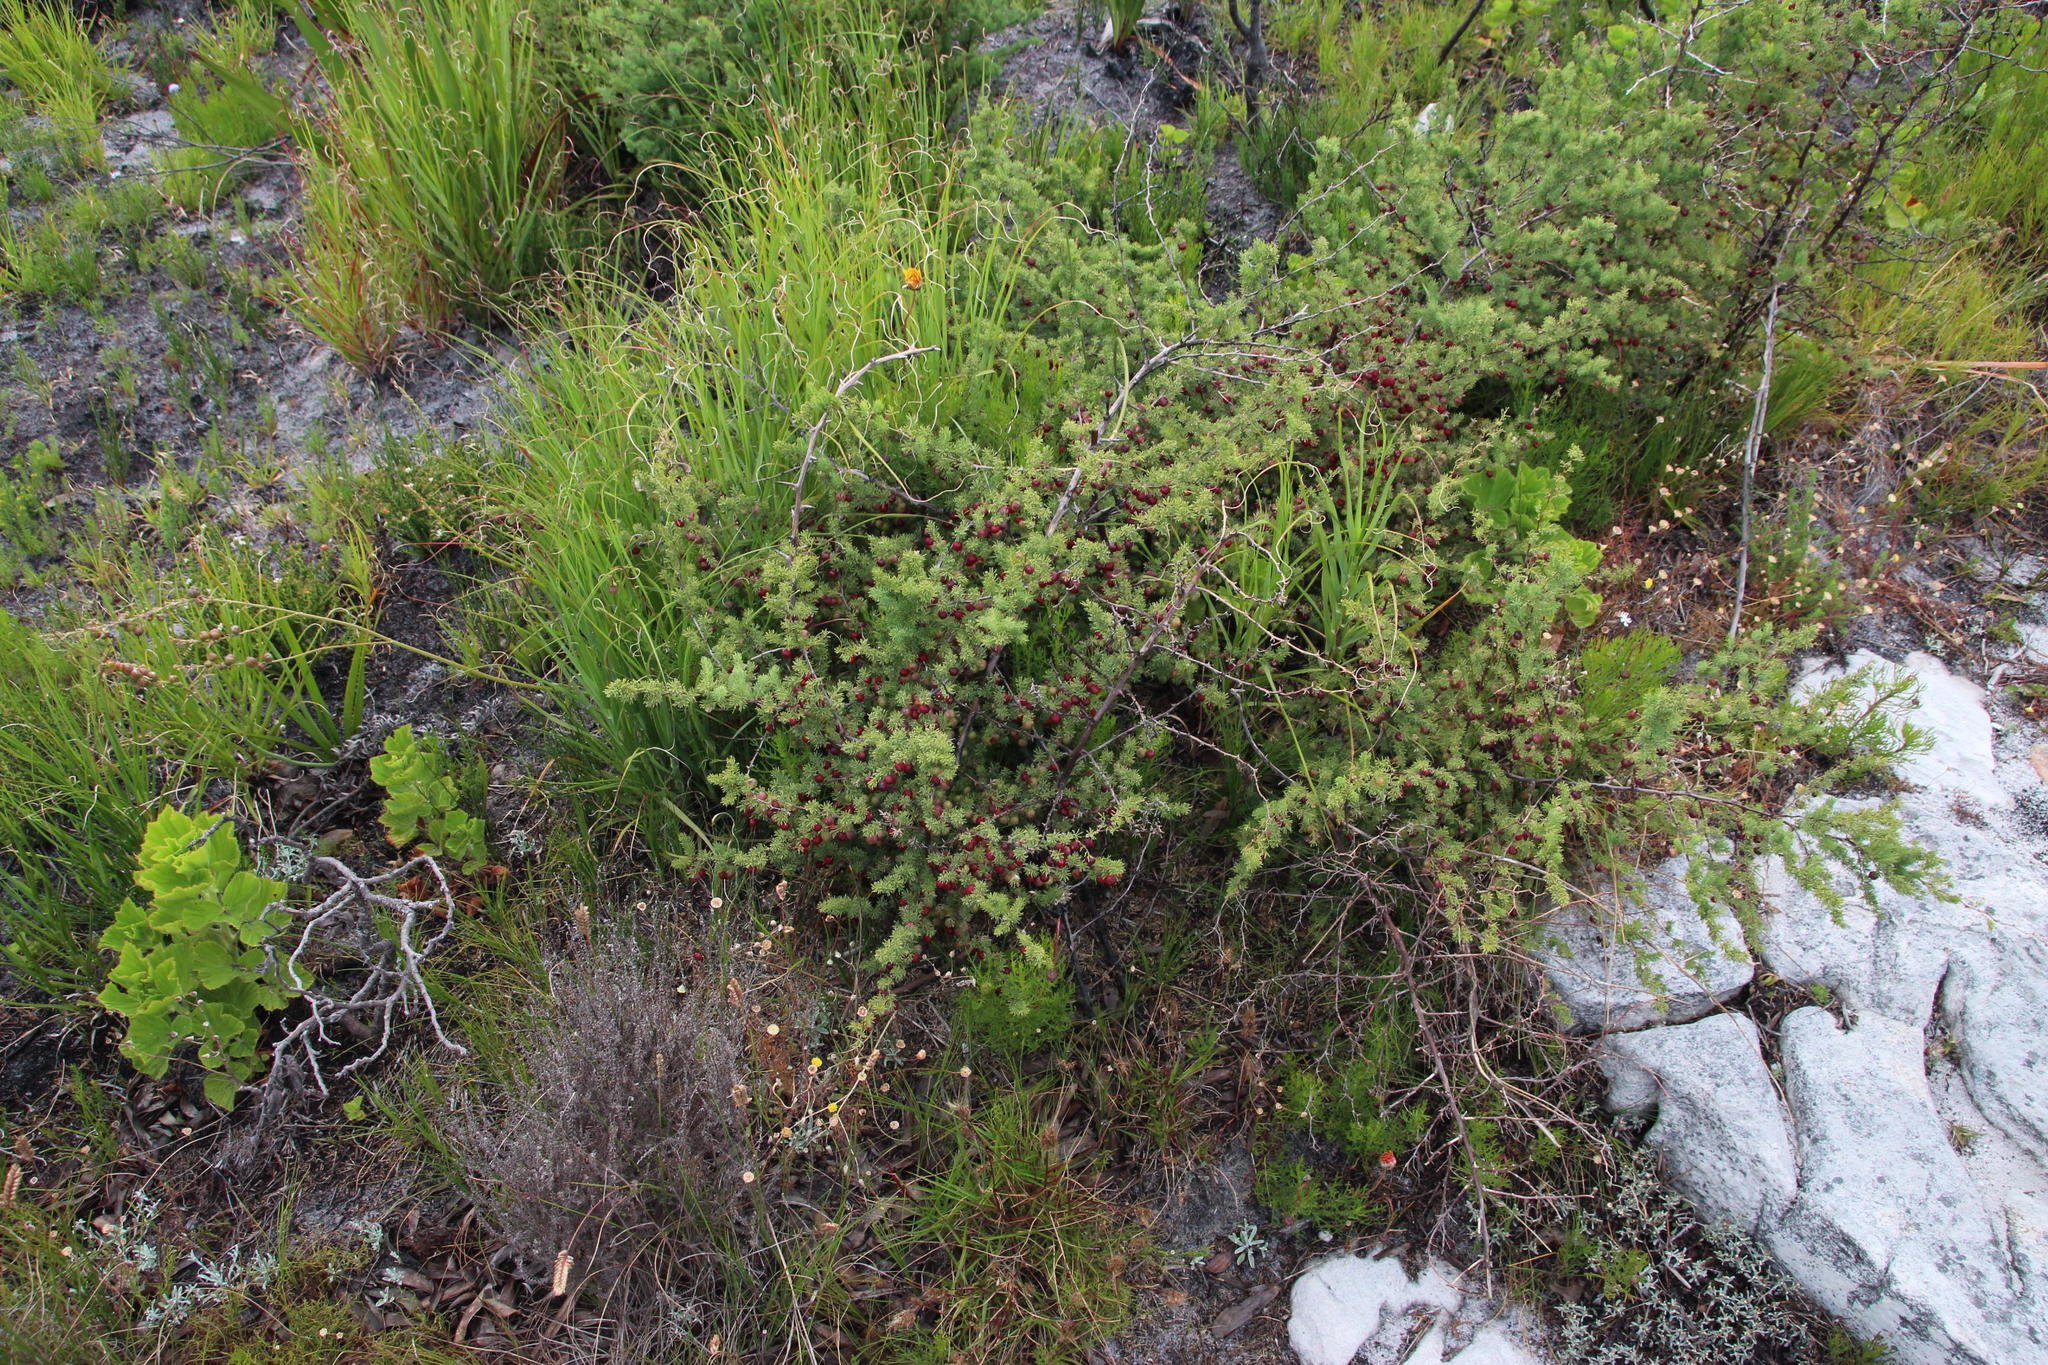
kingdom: Plantae
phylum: Tracheophyta
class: Liliopsida
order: Asparagales
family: Asparagaceae
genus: Asparagus
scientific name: Asparagus rubicundus
